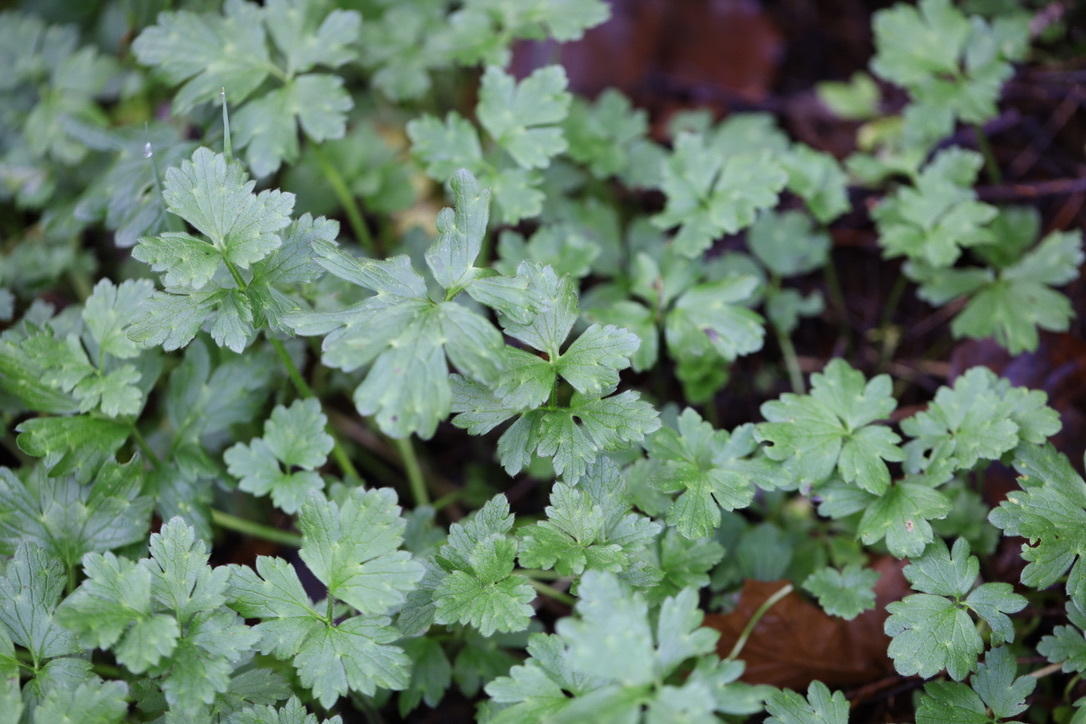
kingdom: Plantae
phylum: Tracheophyta
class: Magnoliopsida
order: Ranunculales
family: Ranunculaceae
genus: Ranunculus
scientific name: Ranunculus repens
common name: Creeping buttercup
